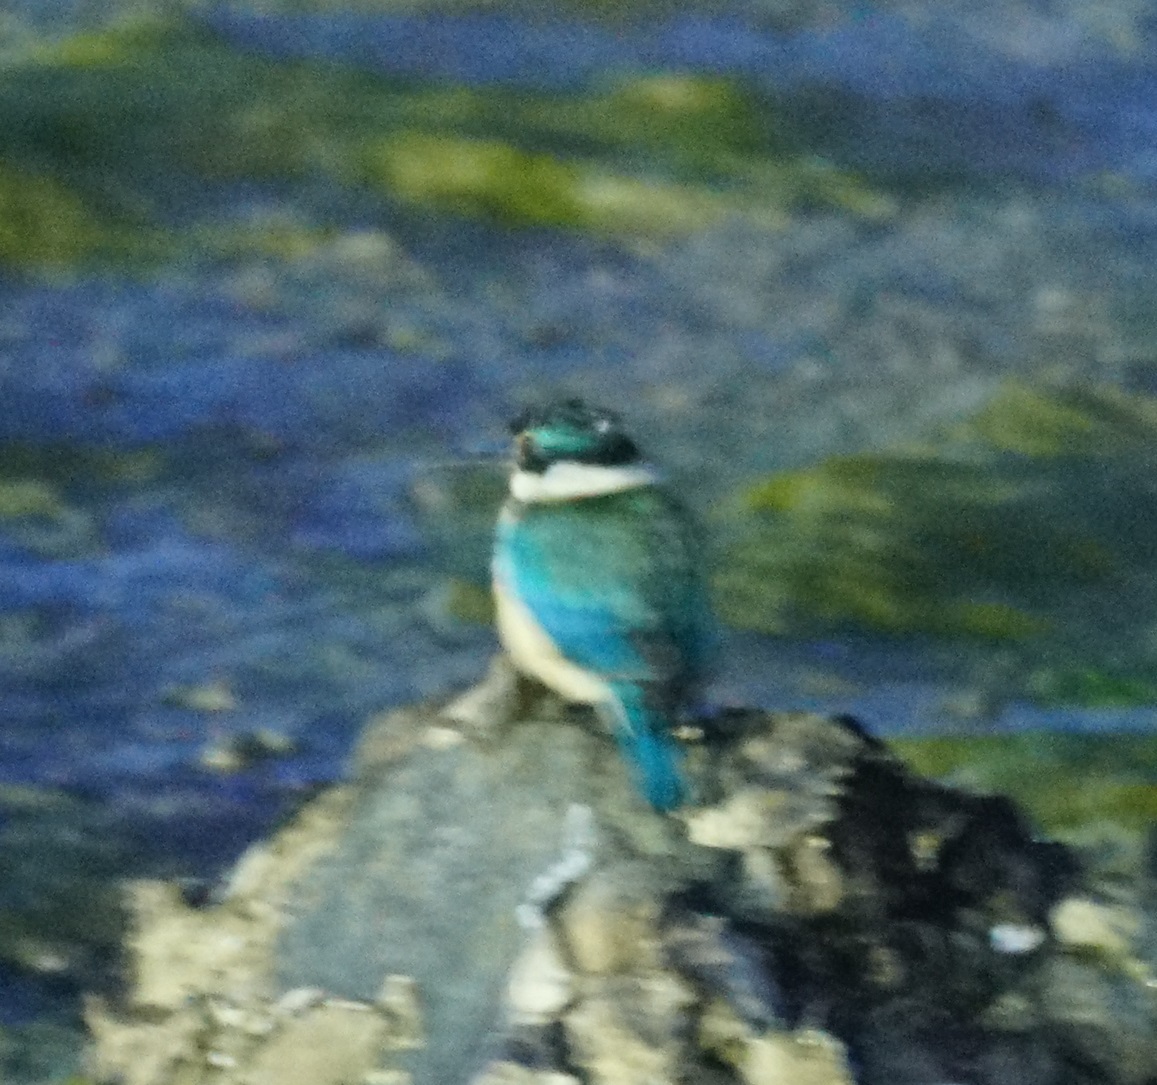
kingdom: Animalia
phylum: Chordata
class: Aves
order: Coraciiformes
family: Alcedinidae
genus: Todiramphus
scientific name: Todiramphus sanctus
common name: Sacred kingfisher
